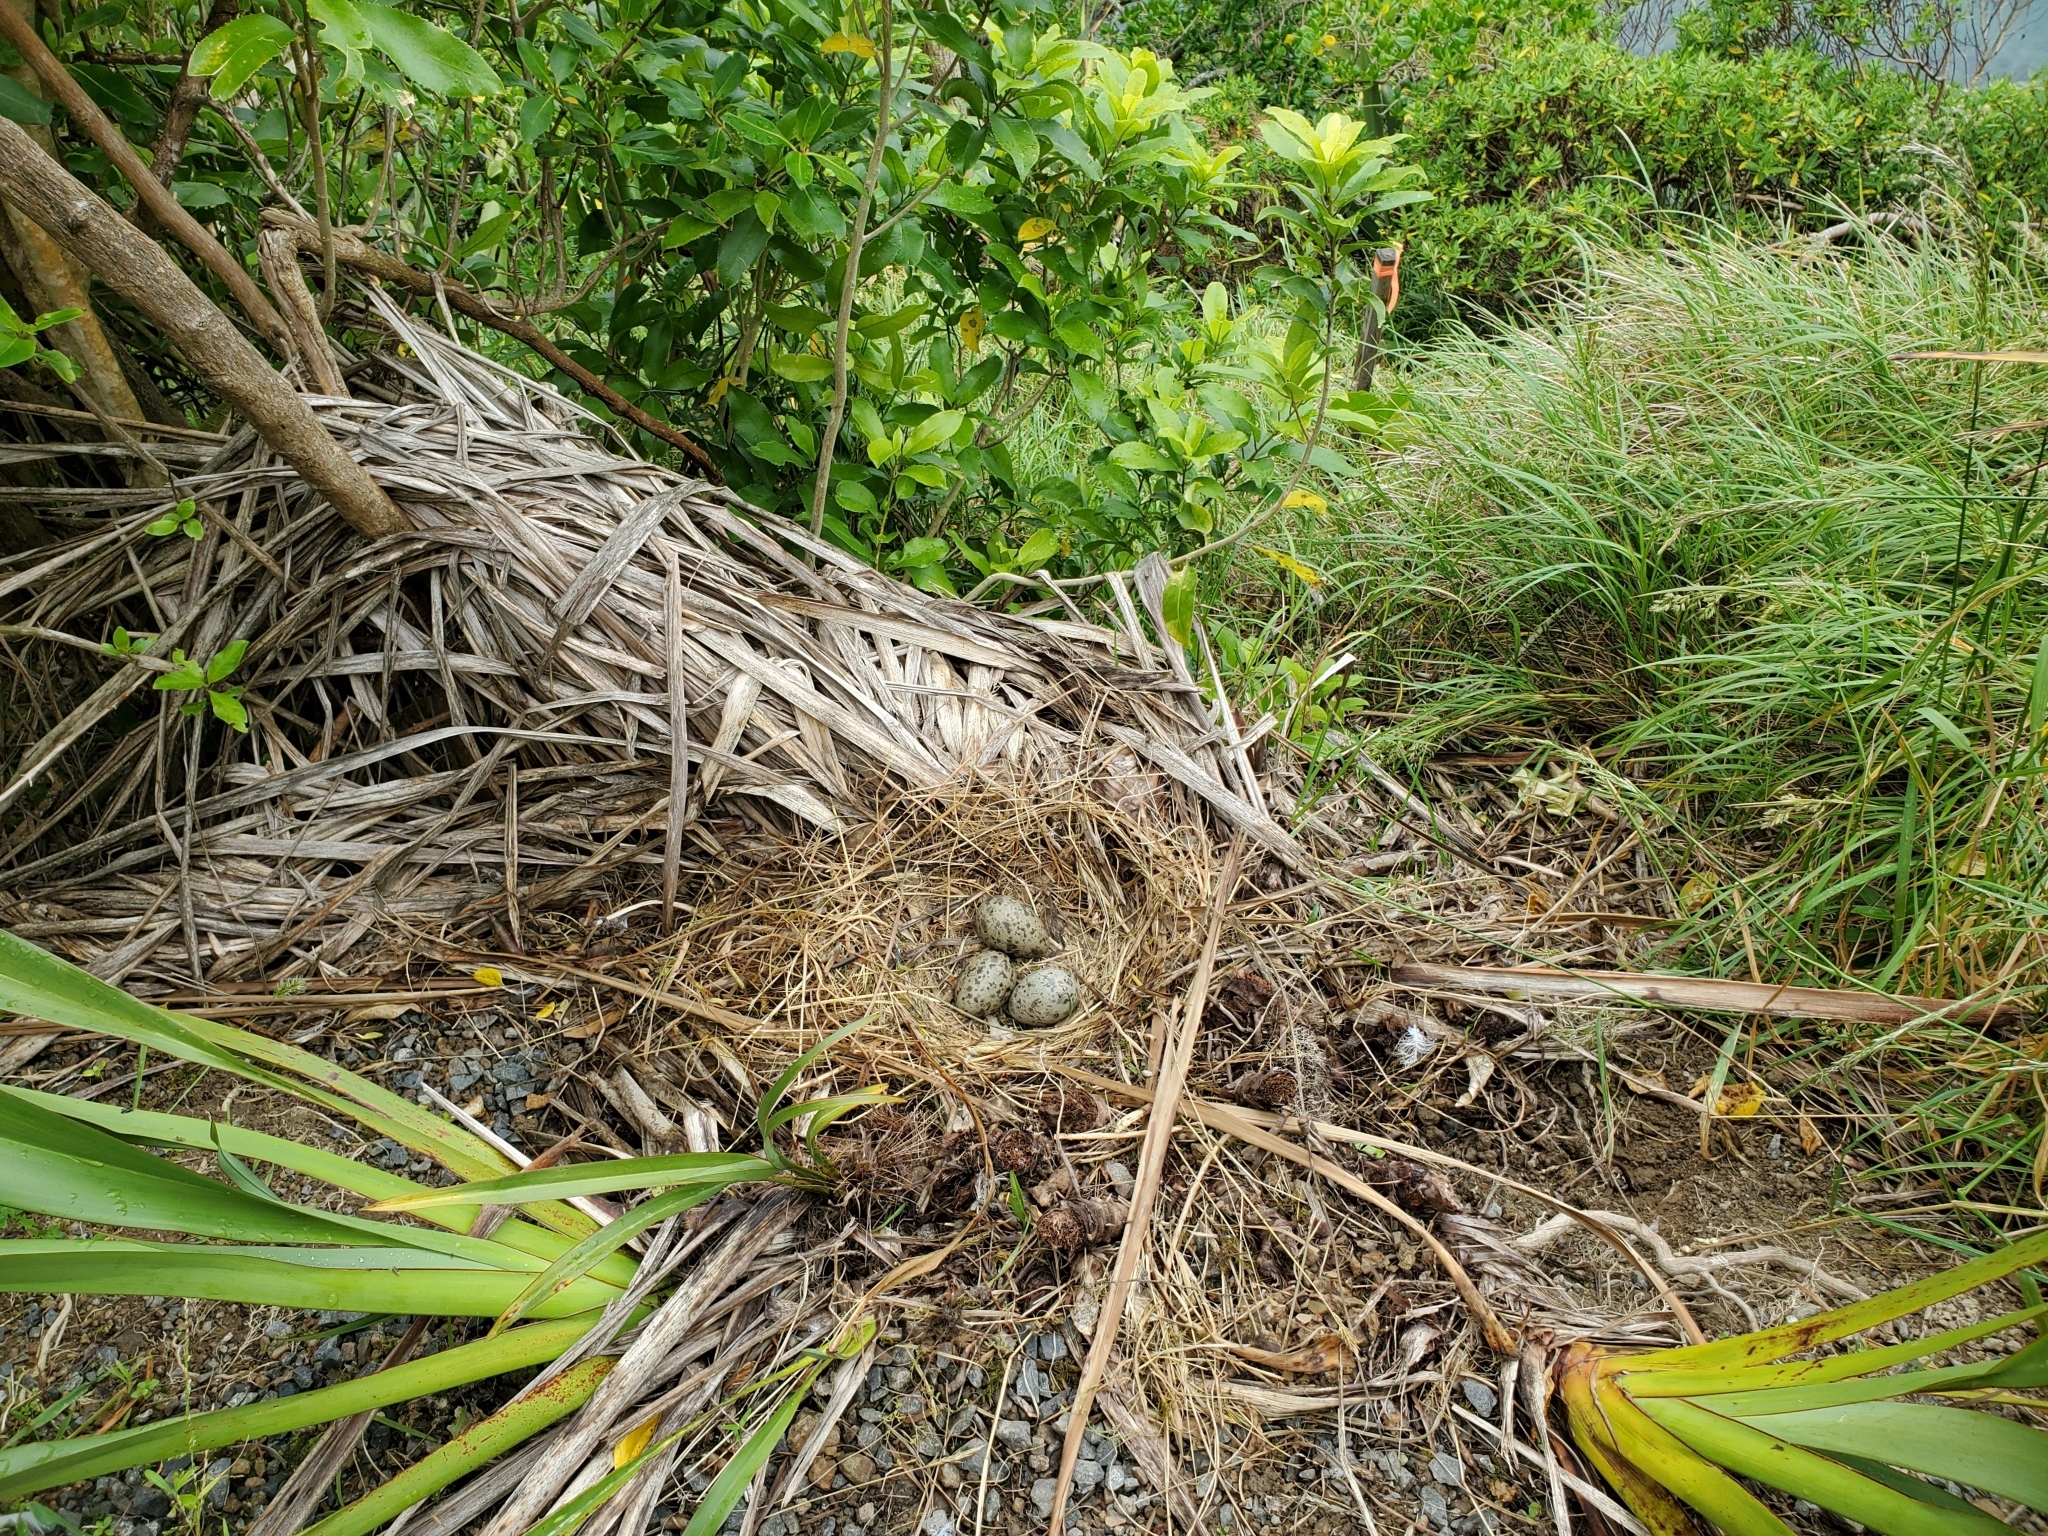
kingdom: Animalia
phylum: Chordata
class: Aves
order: Charadriiformes
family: Laridae
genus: Larus
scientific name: Larus dominicanus
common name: Kelp gull
